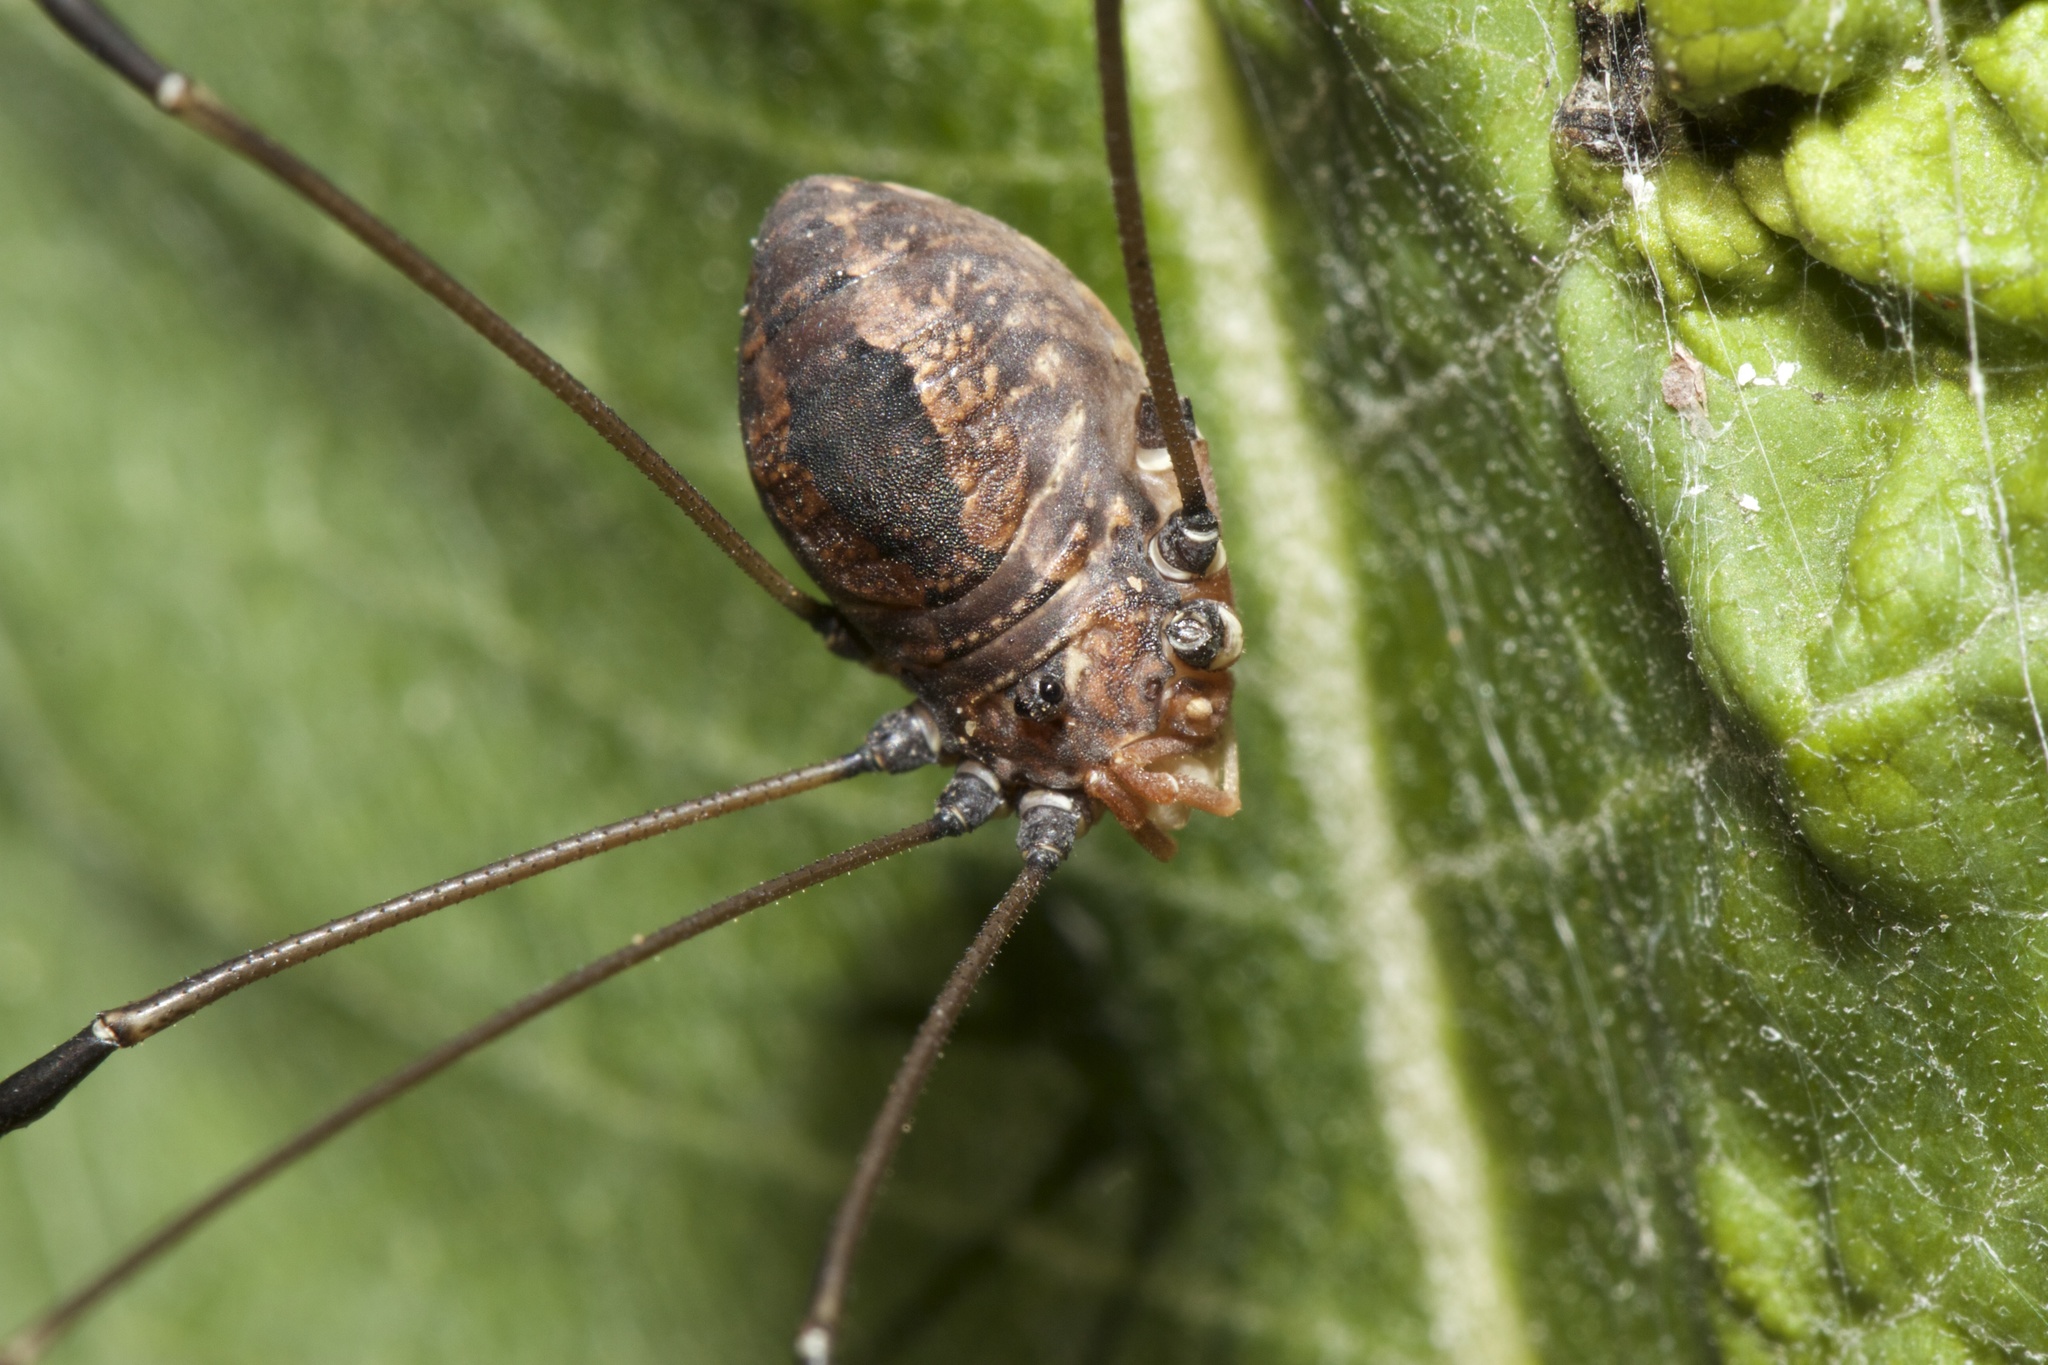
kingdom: Animalia
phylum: Arthropoda
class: Arachnida
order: Opiliones
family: Sclerosomatidae
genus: Leiobunum
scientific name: Leiobunum vittatum
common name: Eastern harvestman
